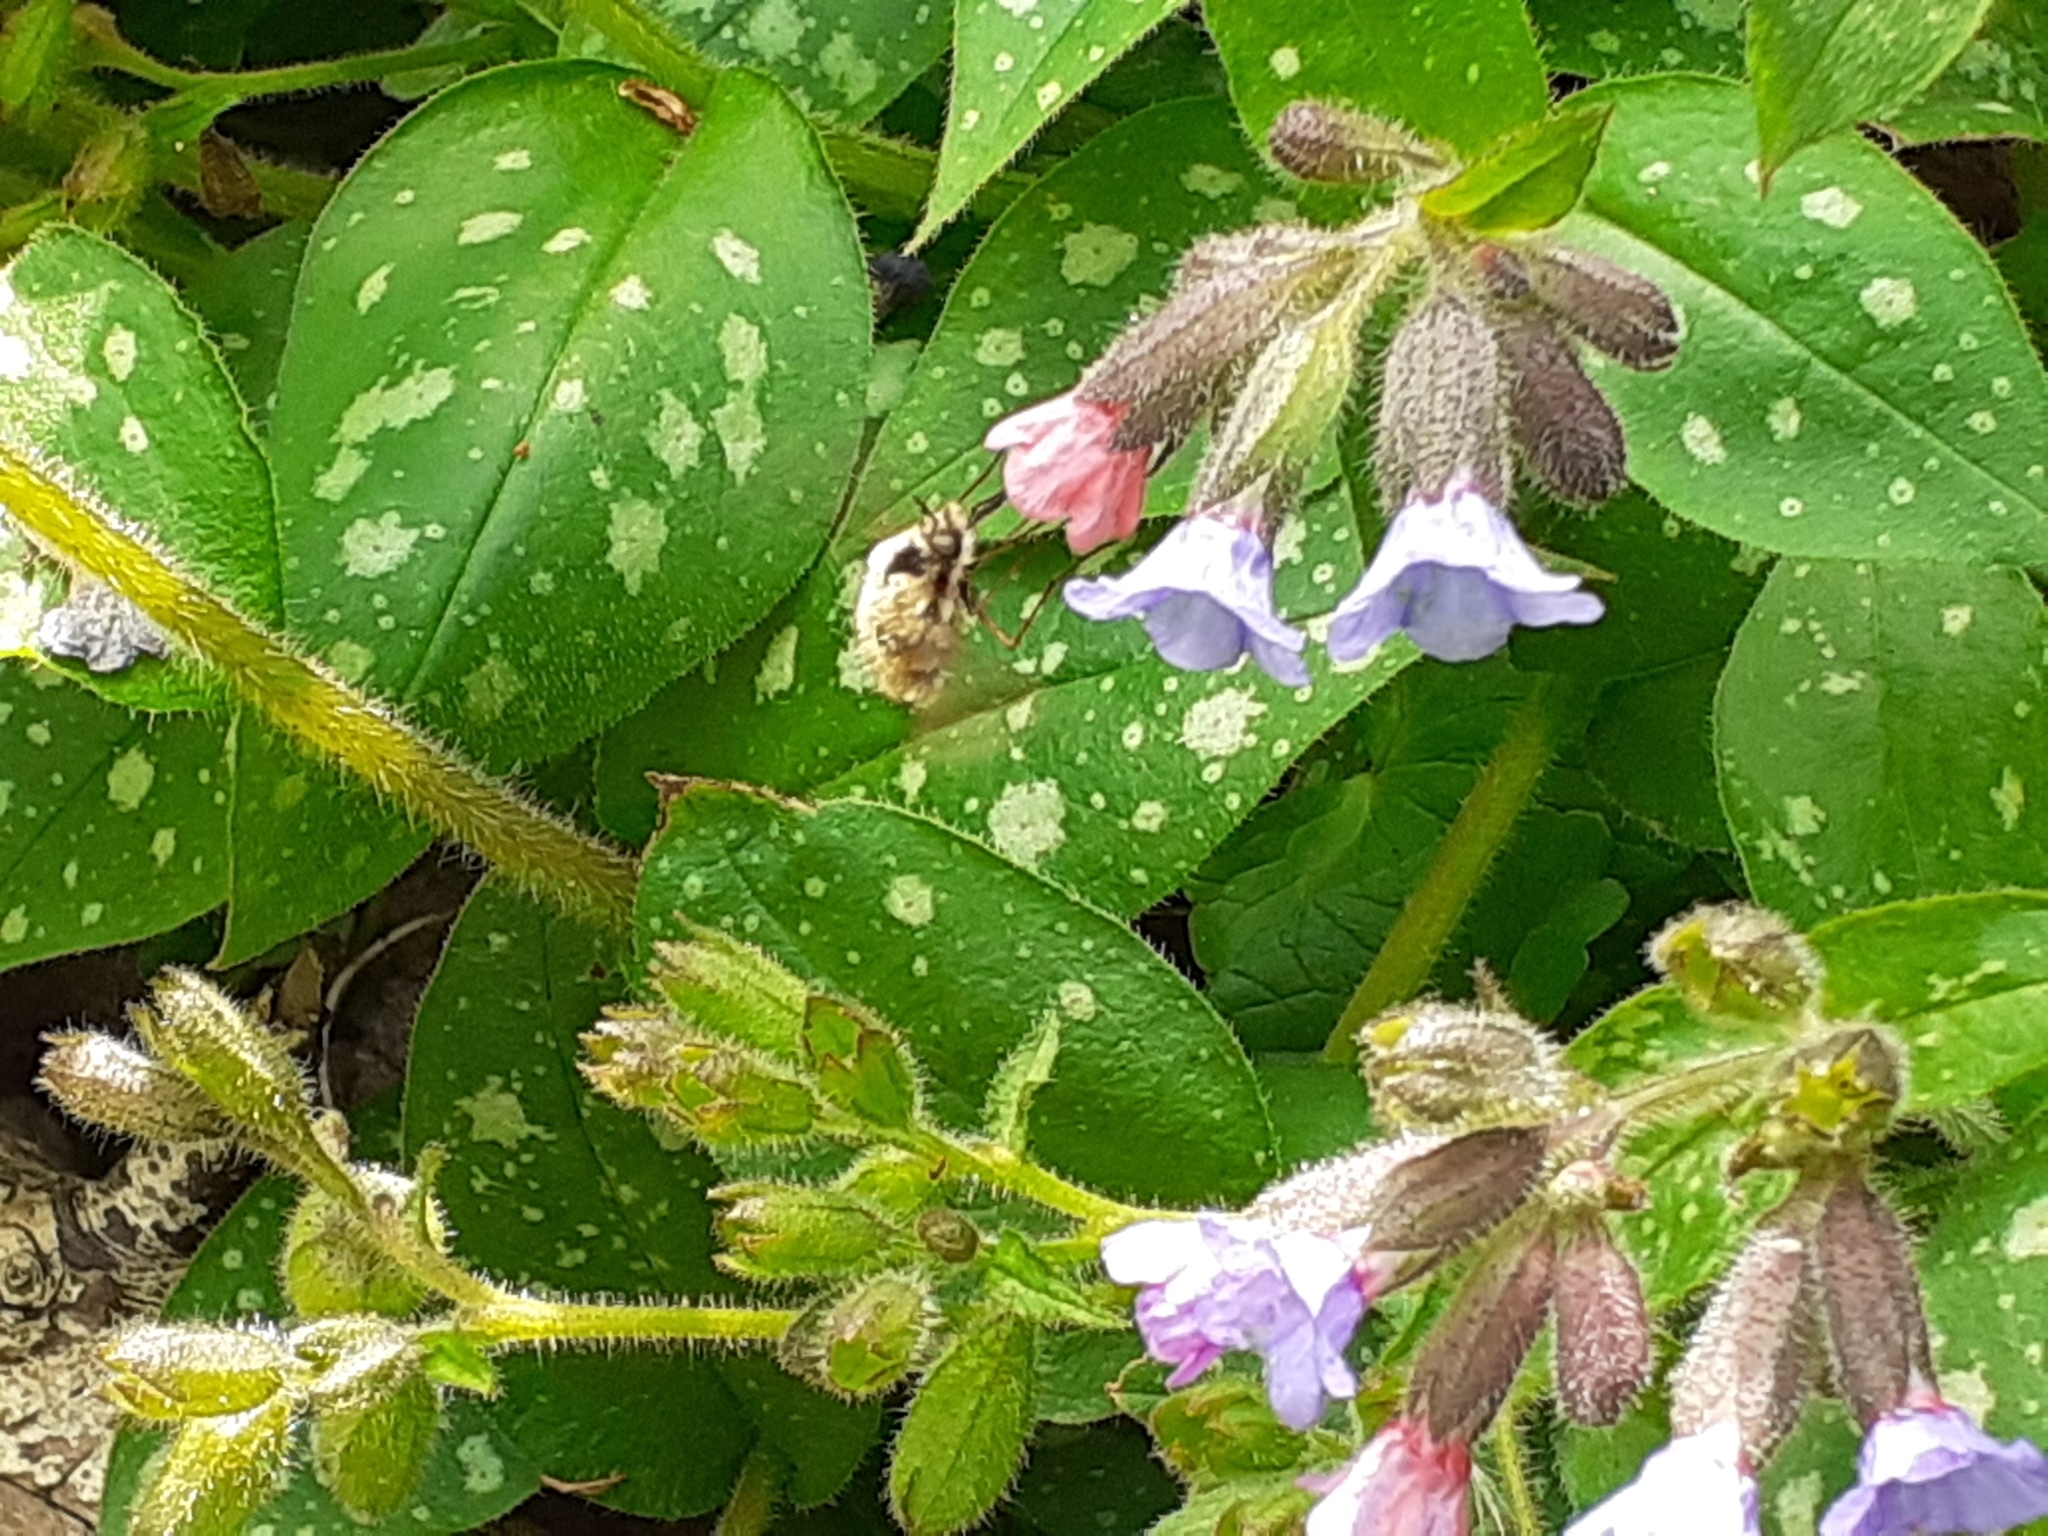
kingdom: Animalia
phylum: Arthropoda
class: Insecta
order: Diptera
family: Bombyliidae
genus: Bombylius
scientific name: Bombylius major
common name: Bee fly
